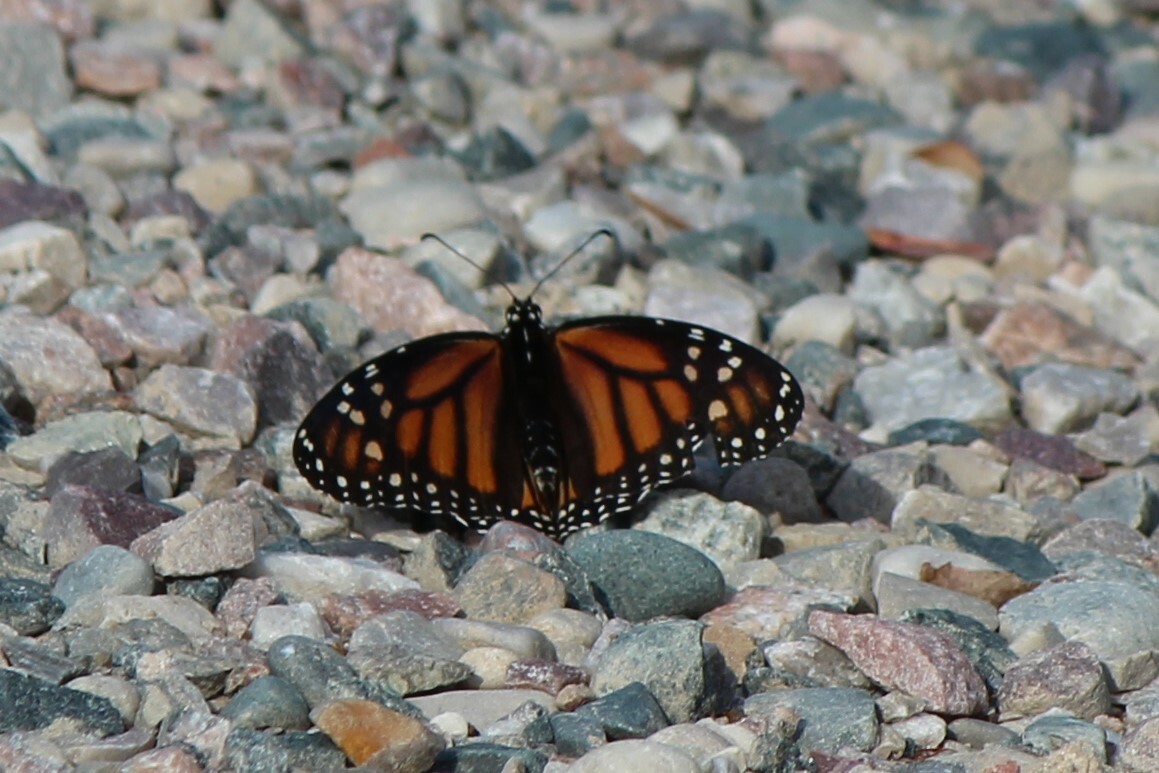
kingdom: Animalia
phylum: Arthropoda
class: Insecta
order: Lepidoptera
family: Nymphalidae
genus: Danaus
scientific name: Danaus plexippus
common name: Monarch
